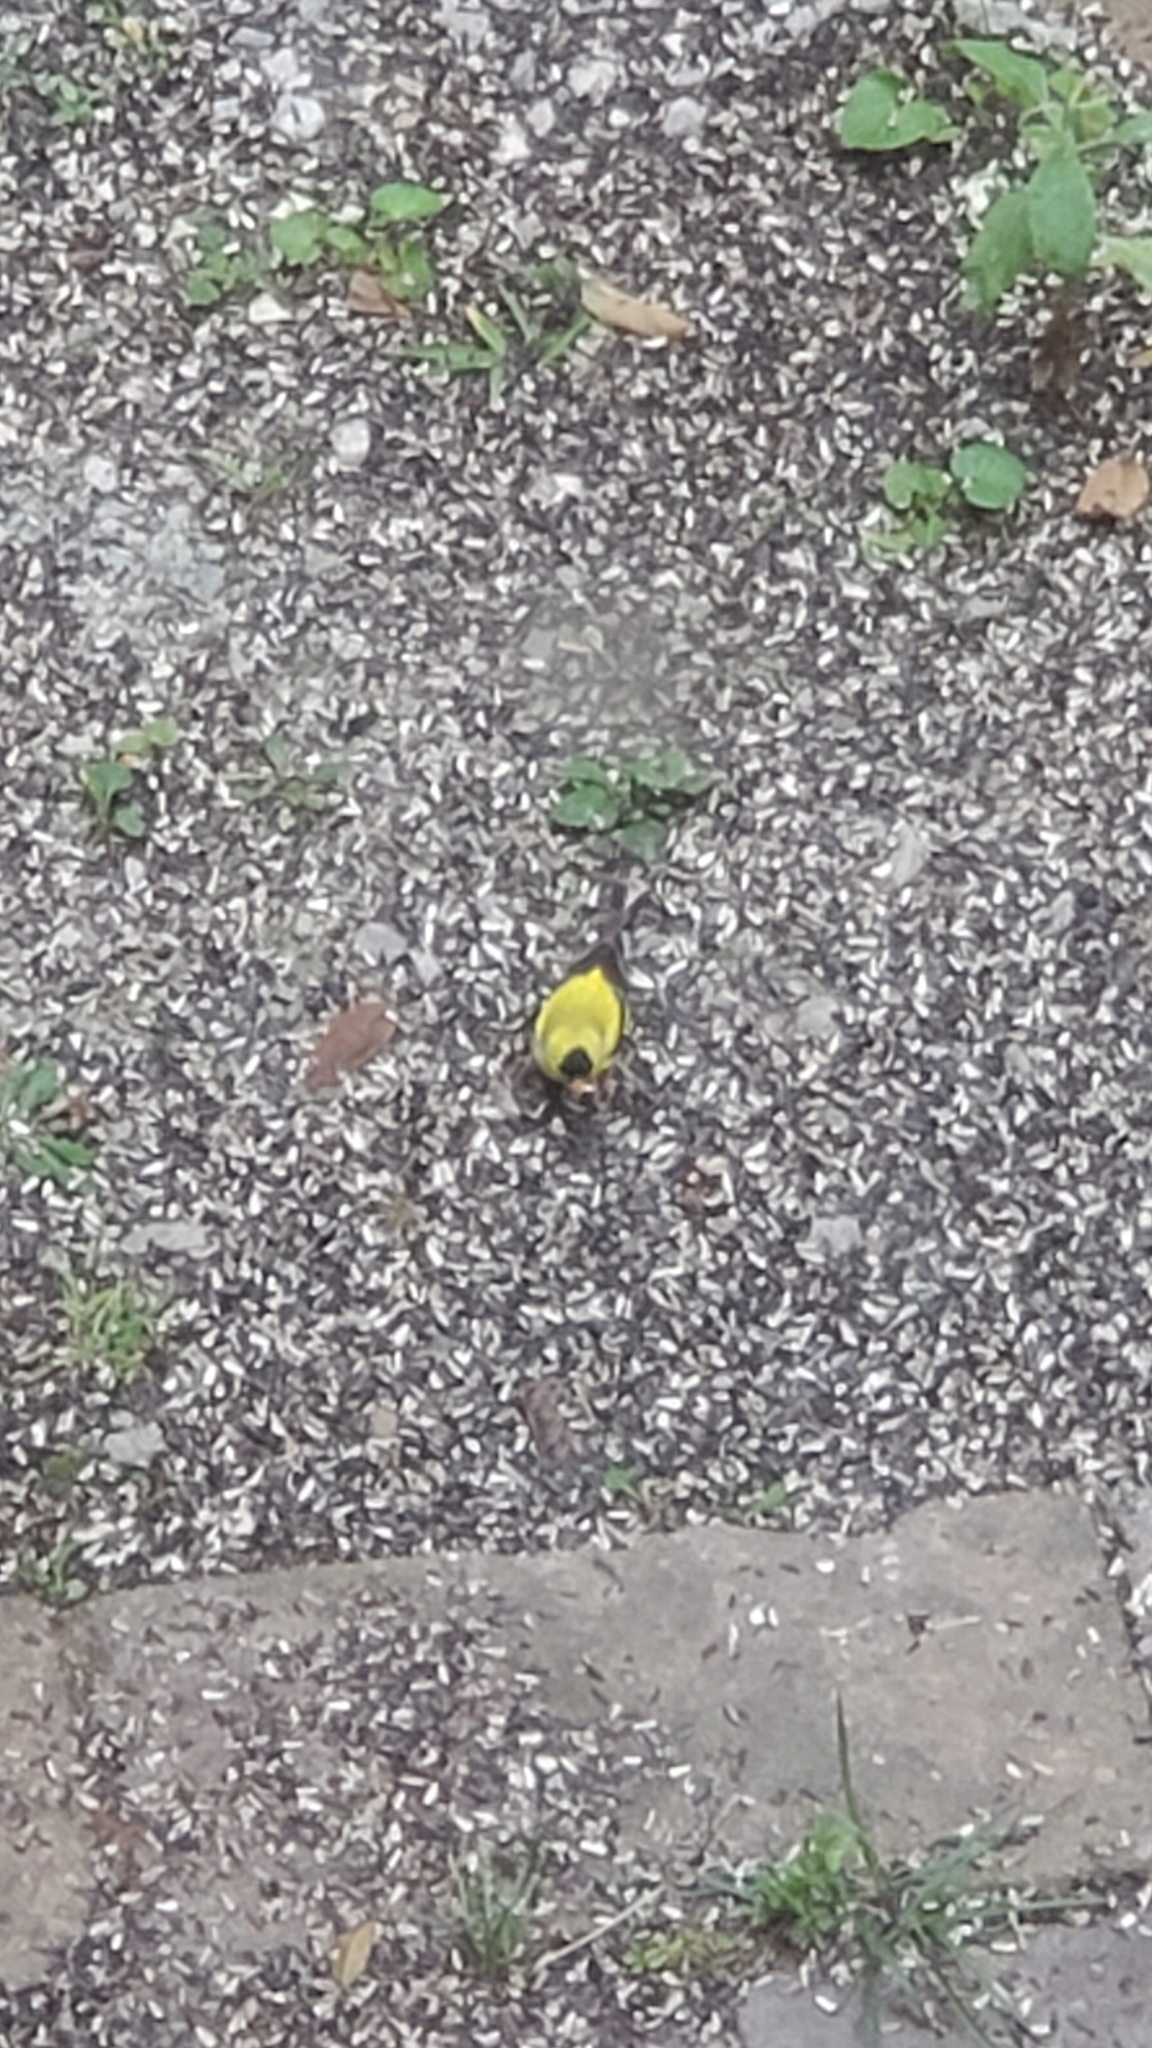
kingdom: Animalia
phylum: Chordata
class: Aves
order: Passeriformes
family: Fringillidae
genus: Spinus
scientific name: Spinus tristis
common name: American goldfinch
